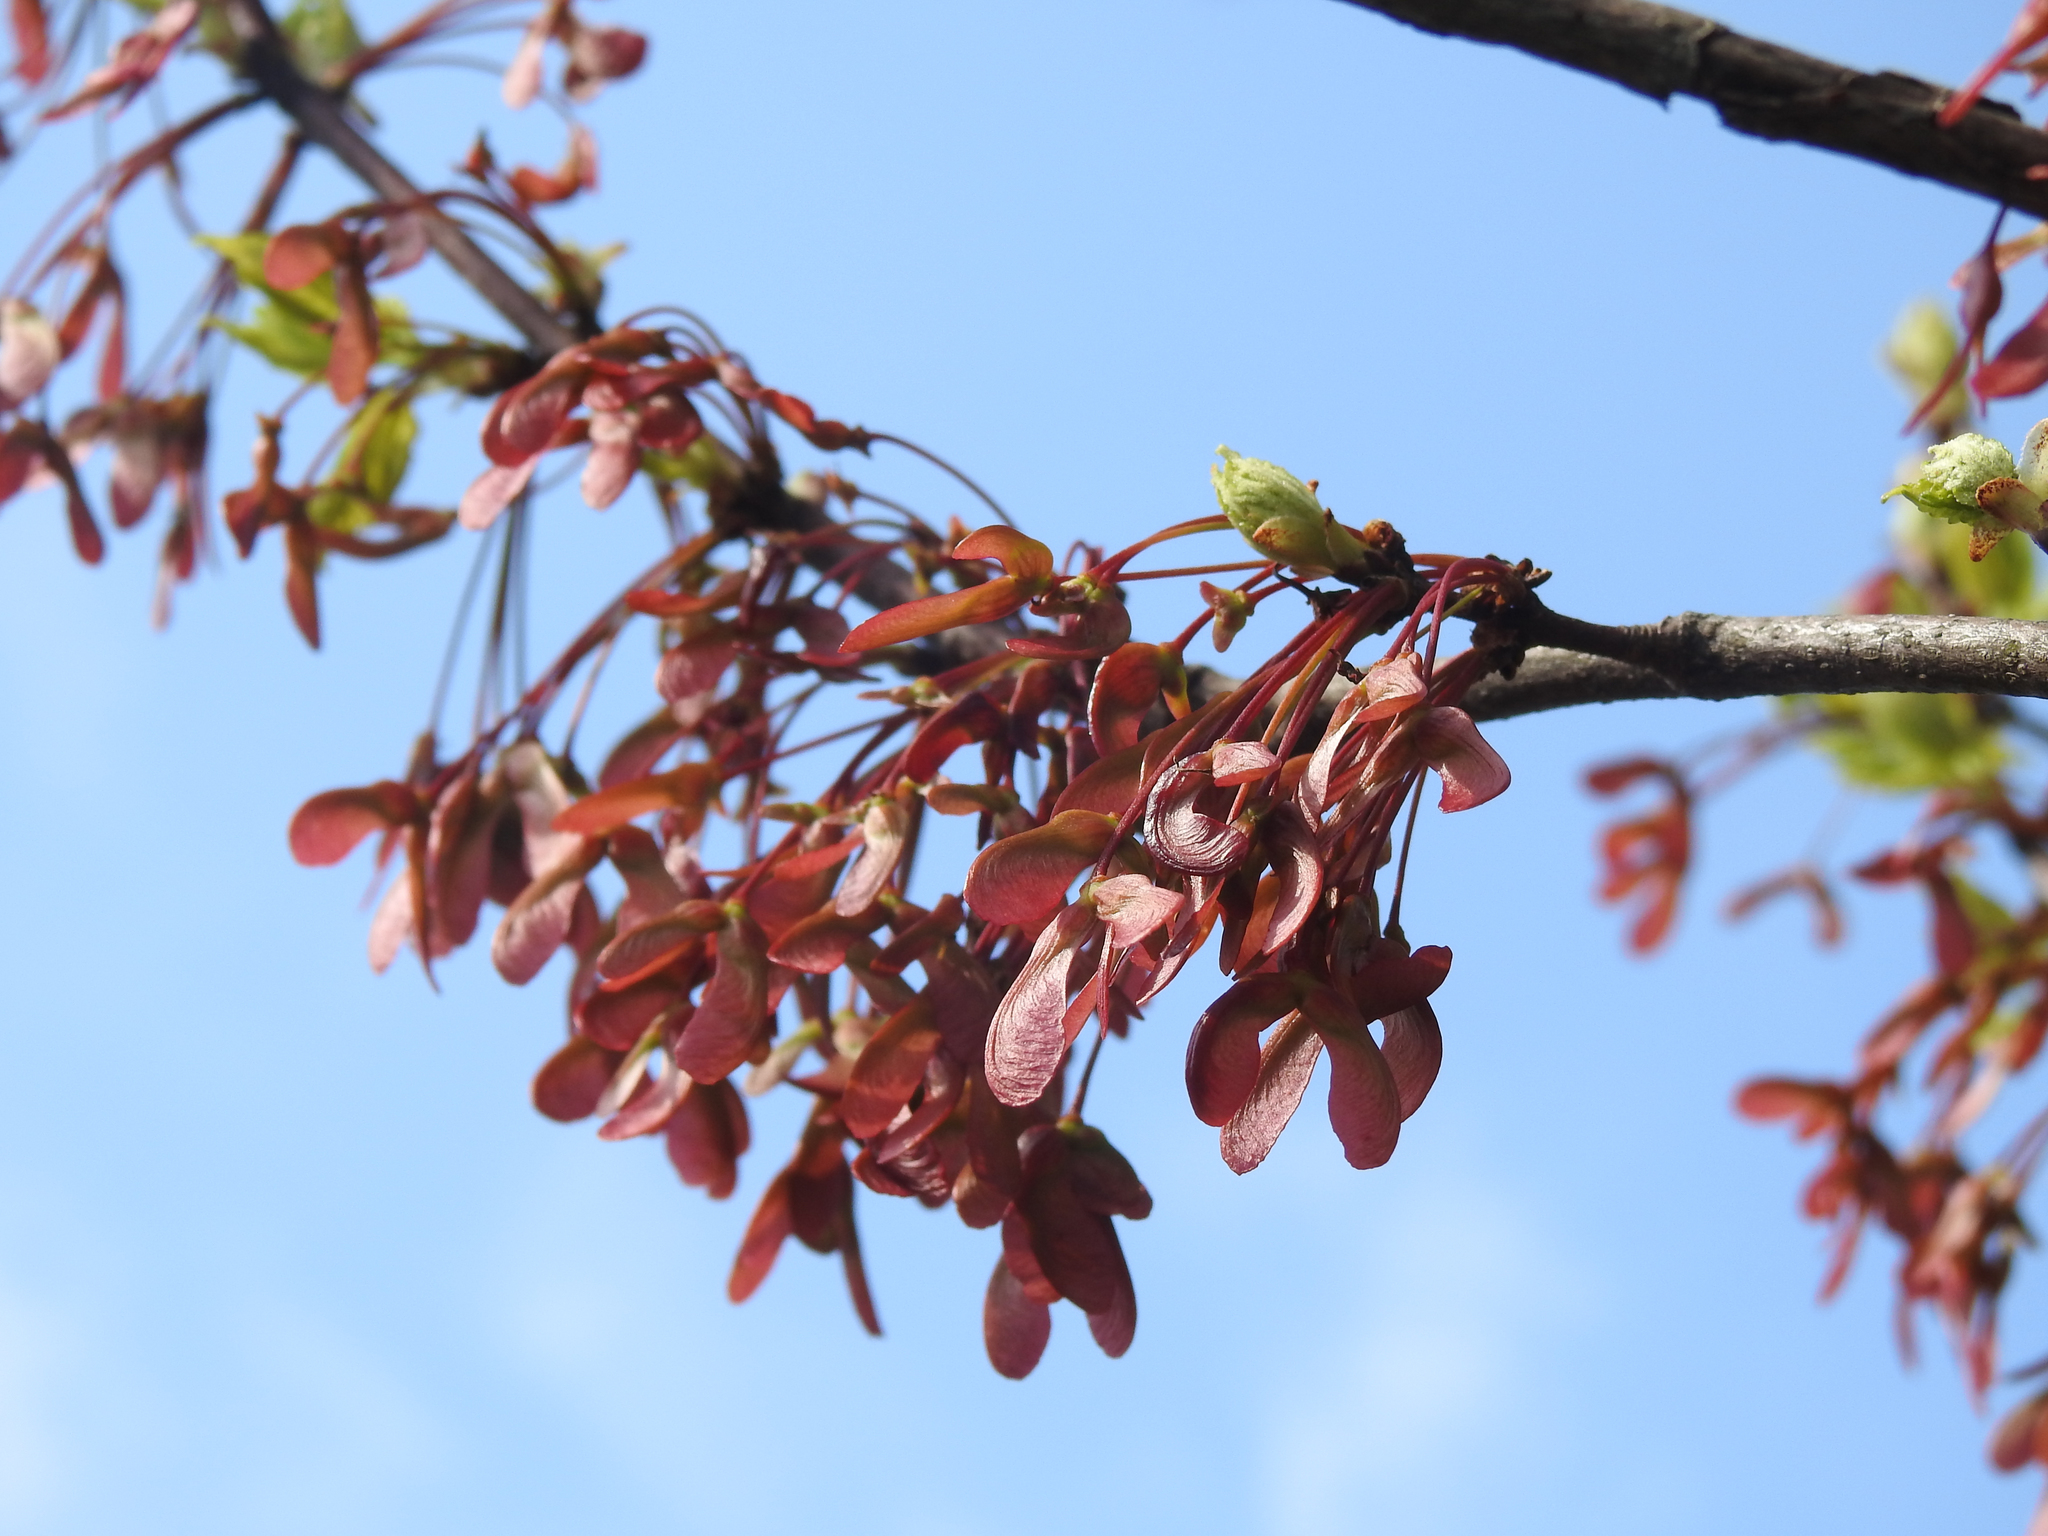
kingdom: Plantae
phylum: Tracheophyta
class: Magnoliopsida
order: Sapindales
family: Sapindaceae
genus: Acer
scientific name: Acer rubrum
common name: Red maple
